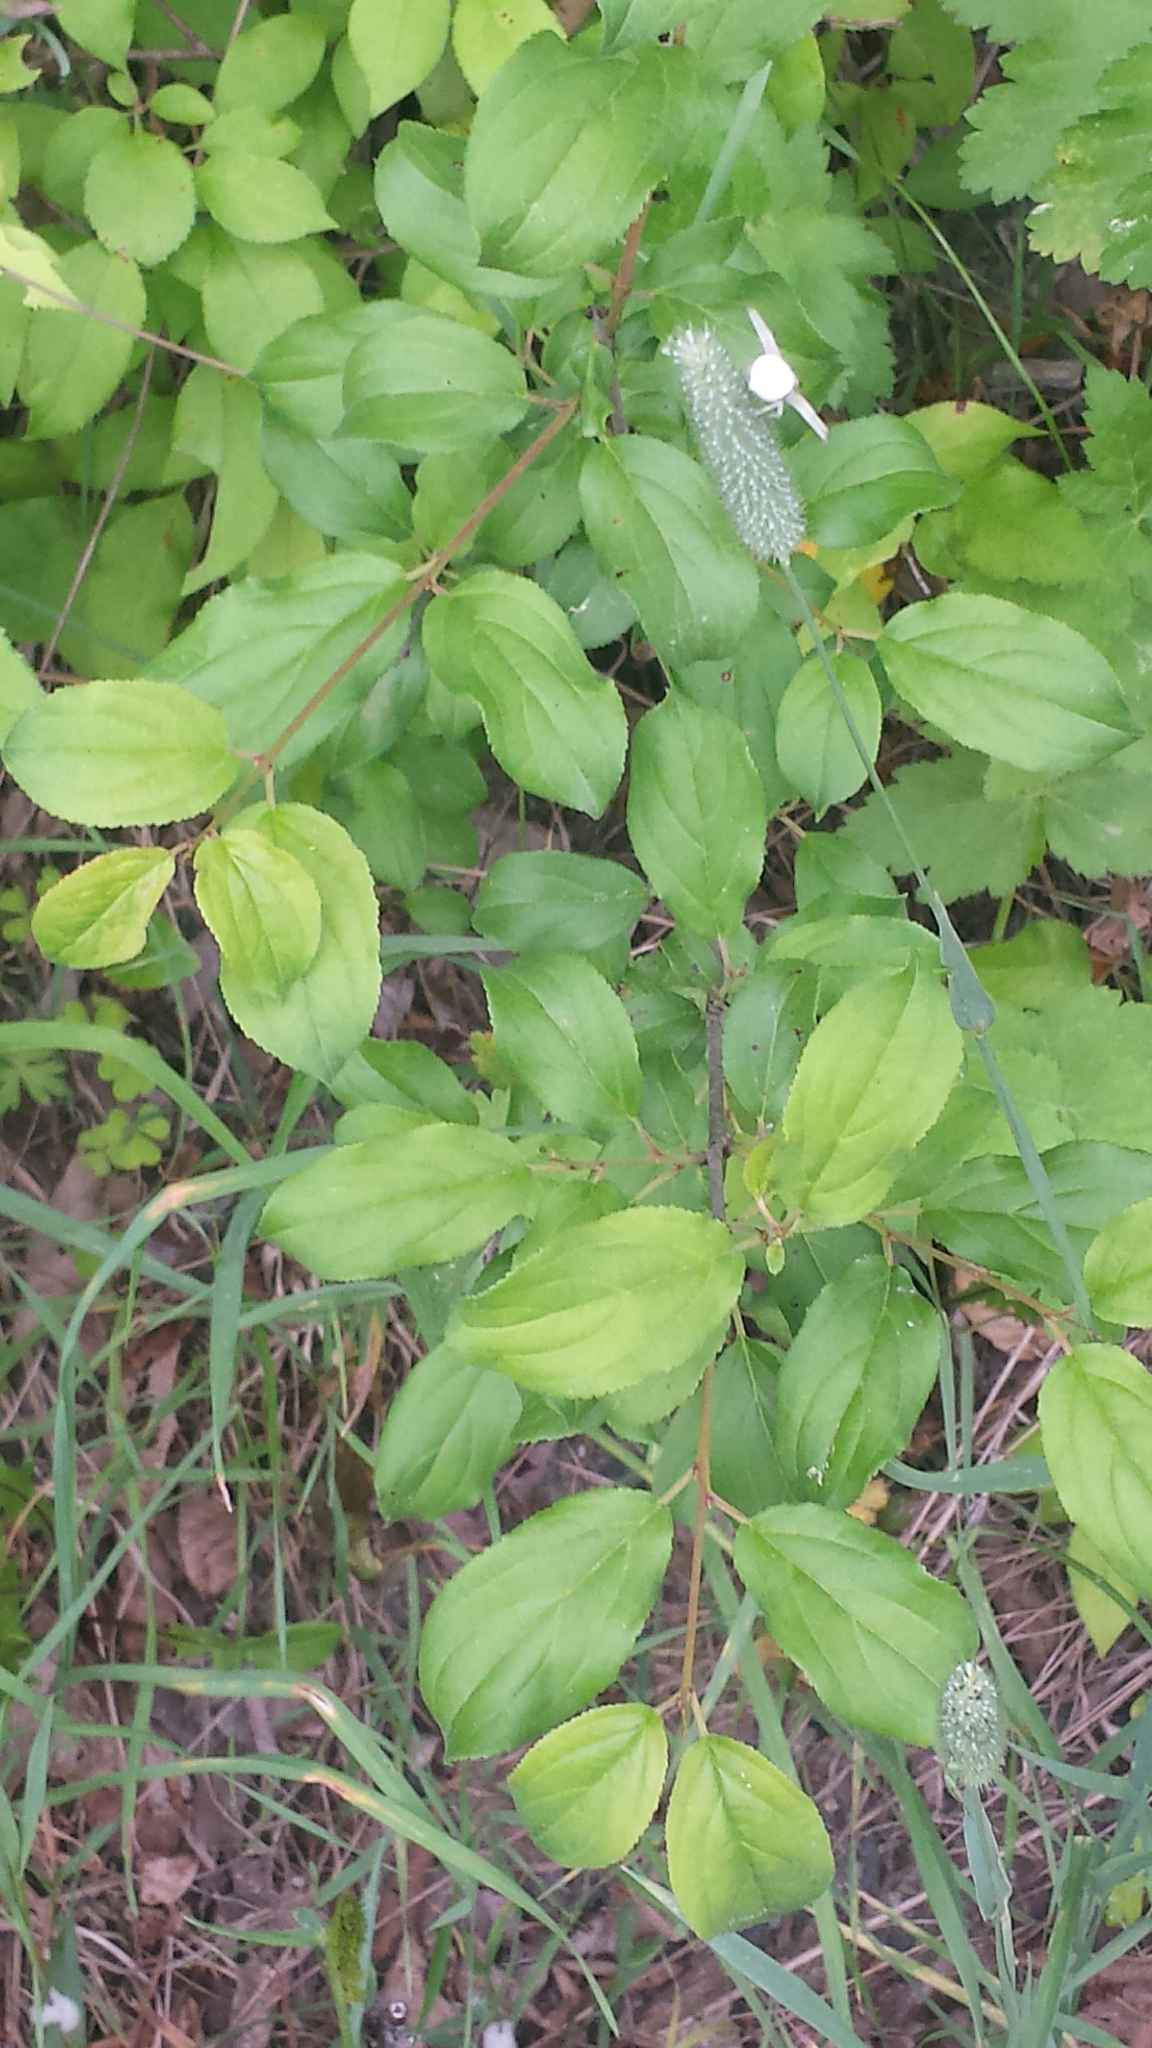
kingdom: Plantae
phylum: Tracheophyta
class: Magnoliopsida
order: Rosales
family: Rhamnaceae
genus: Rhamnus
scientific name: Rhamnus cathartica
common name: Common buckthorn
